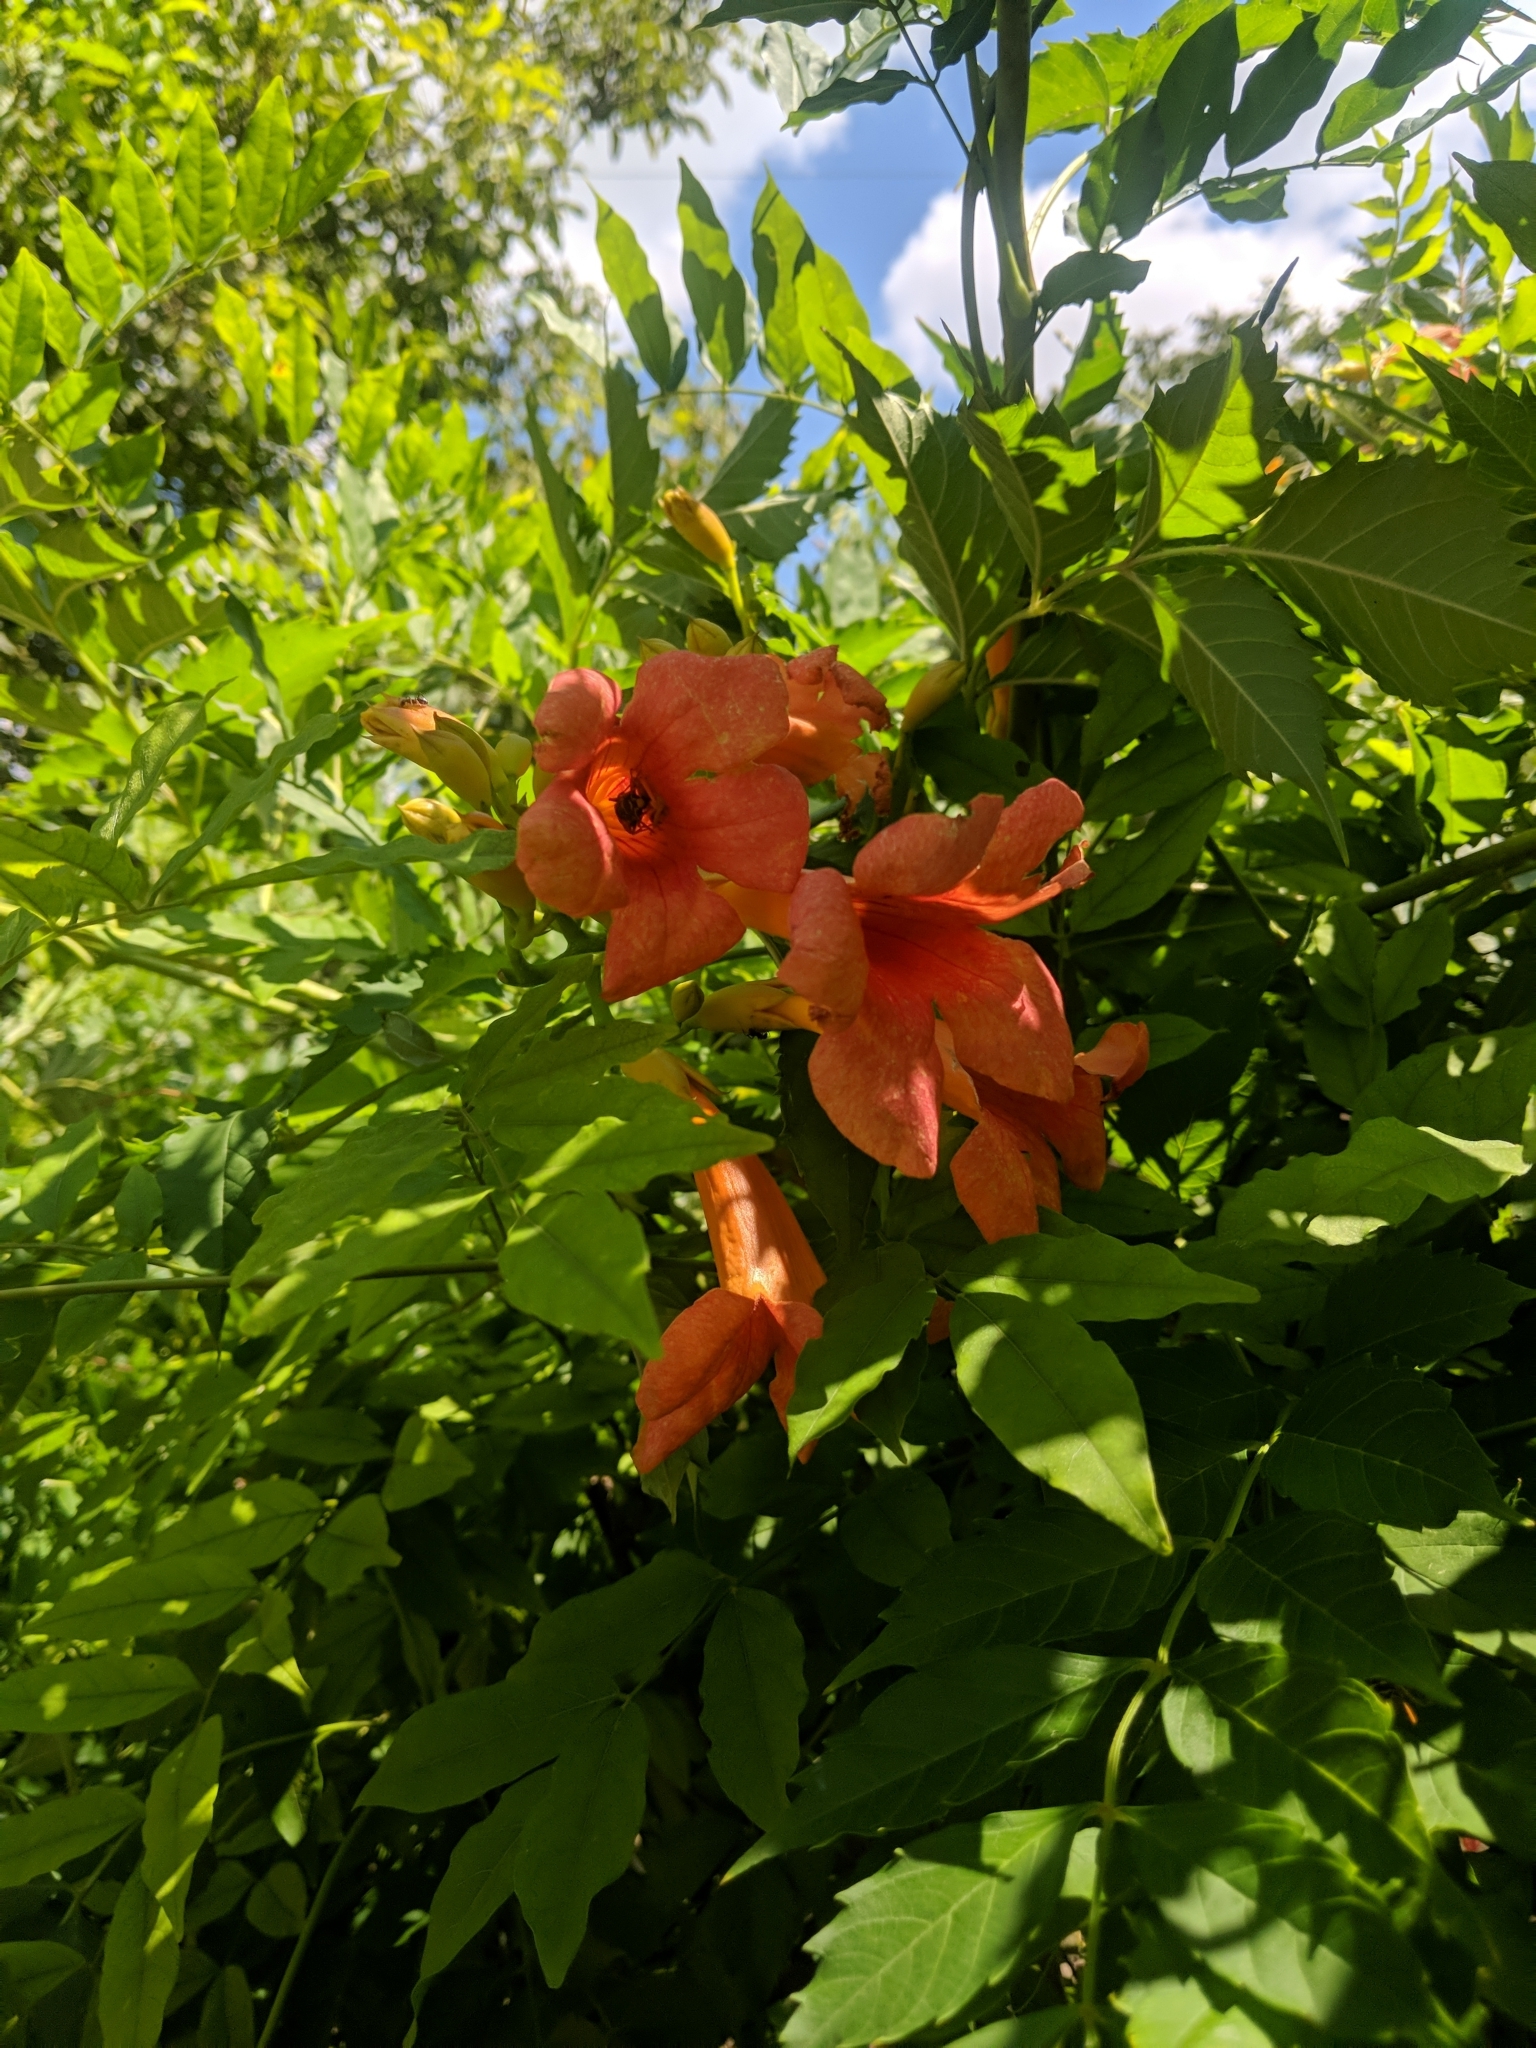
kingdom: Plantae
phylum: Tracheophyta
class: Magnoliopsida
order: Lamiales
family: Bignoniaceae
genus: Campsis
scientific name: Campsis radicans
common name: Trumpet-creeper
